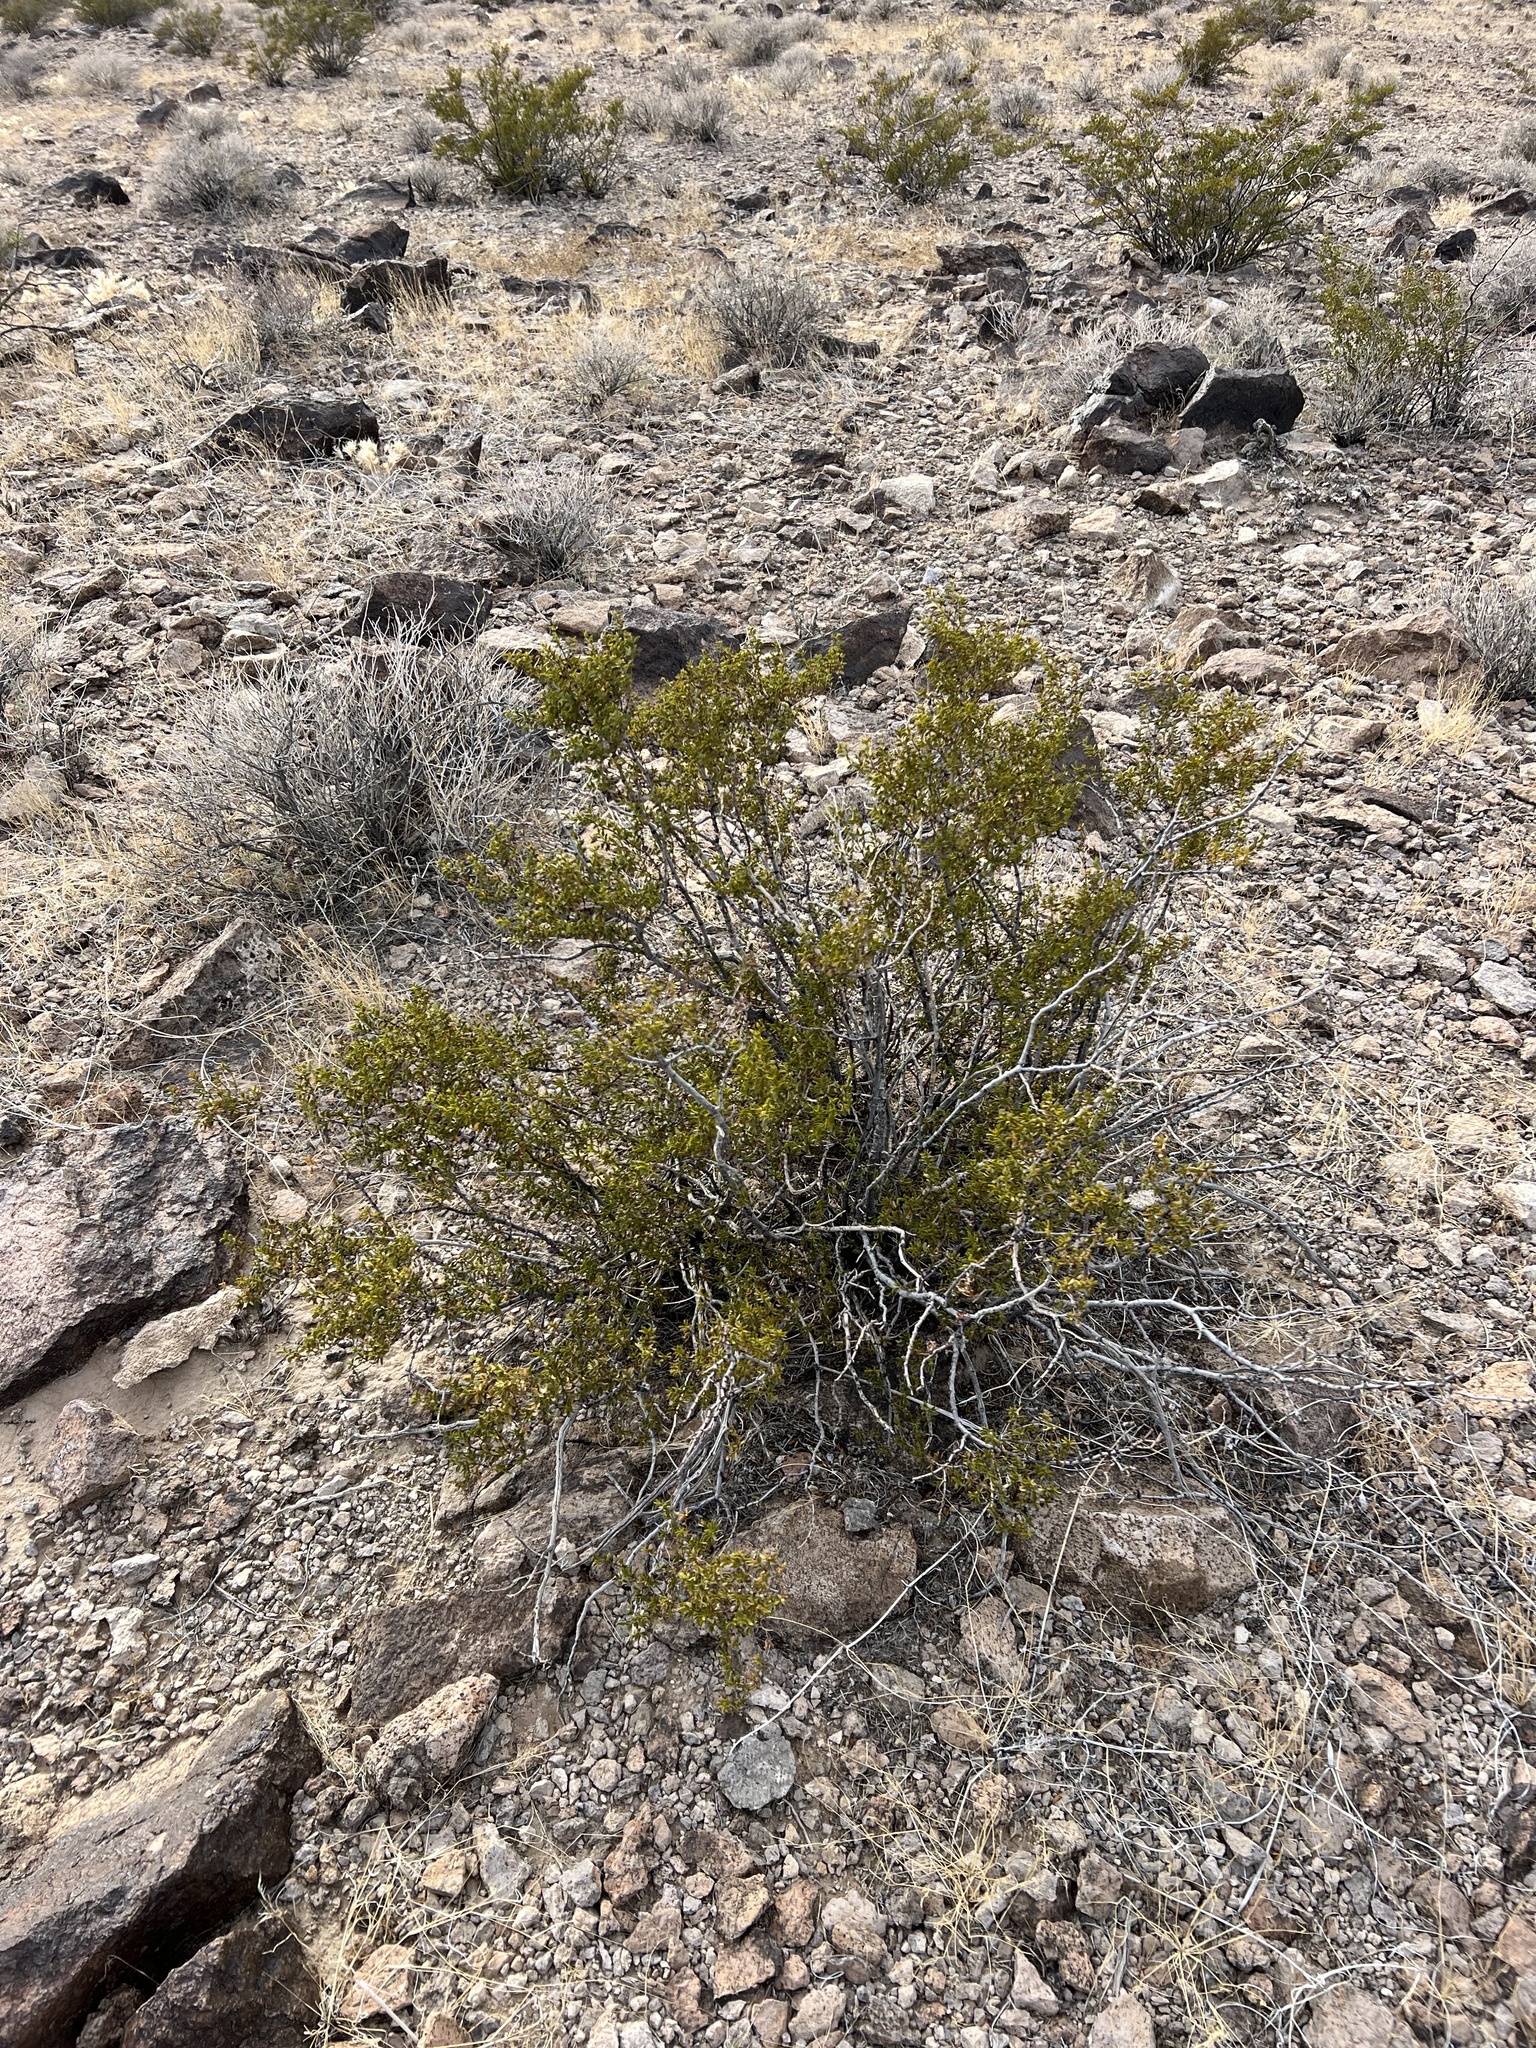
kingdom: Plantae
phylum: Tracheophyta
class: Magnoliopsida
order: Zygophyllales
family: Zygophyllaceae
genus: Larrea
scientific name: Larrea tridentata
